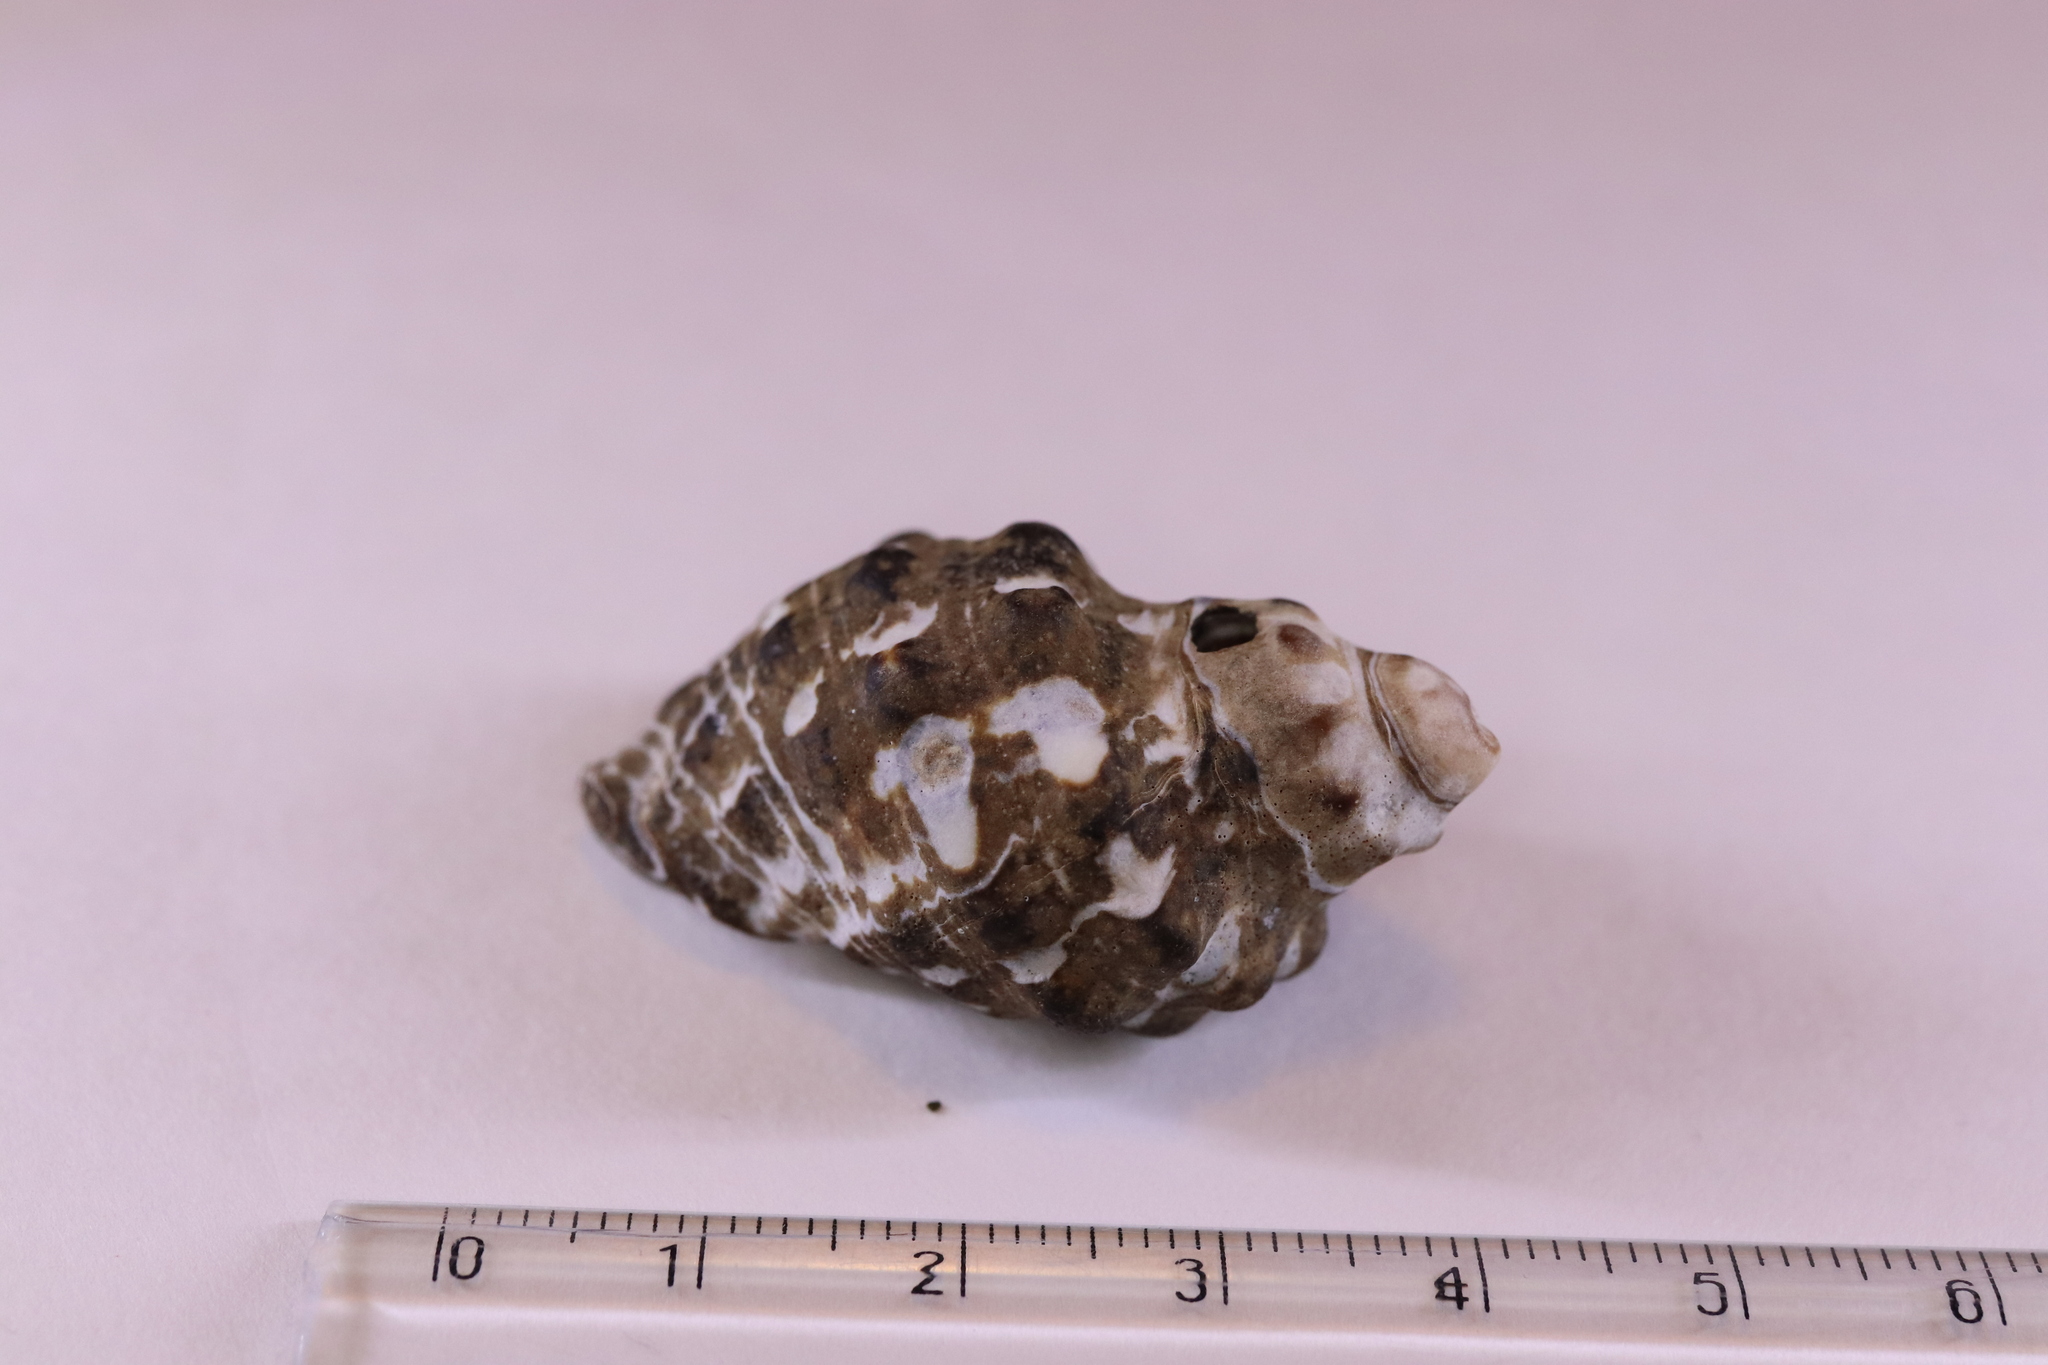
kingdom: Animalia
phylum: Mollusca
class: Gastropoda
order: Neogastropoda
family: Muricidae
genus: Reishia
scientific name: Reishia clavigera
